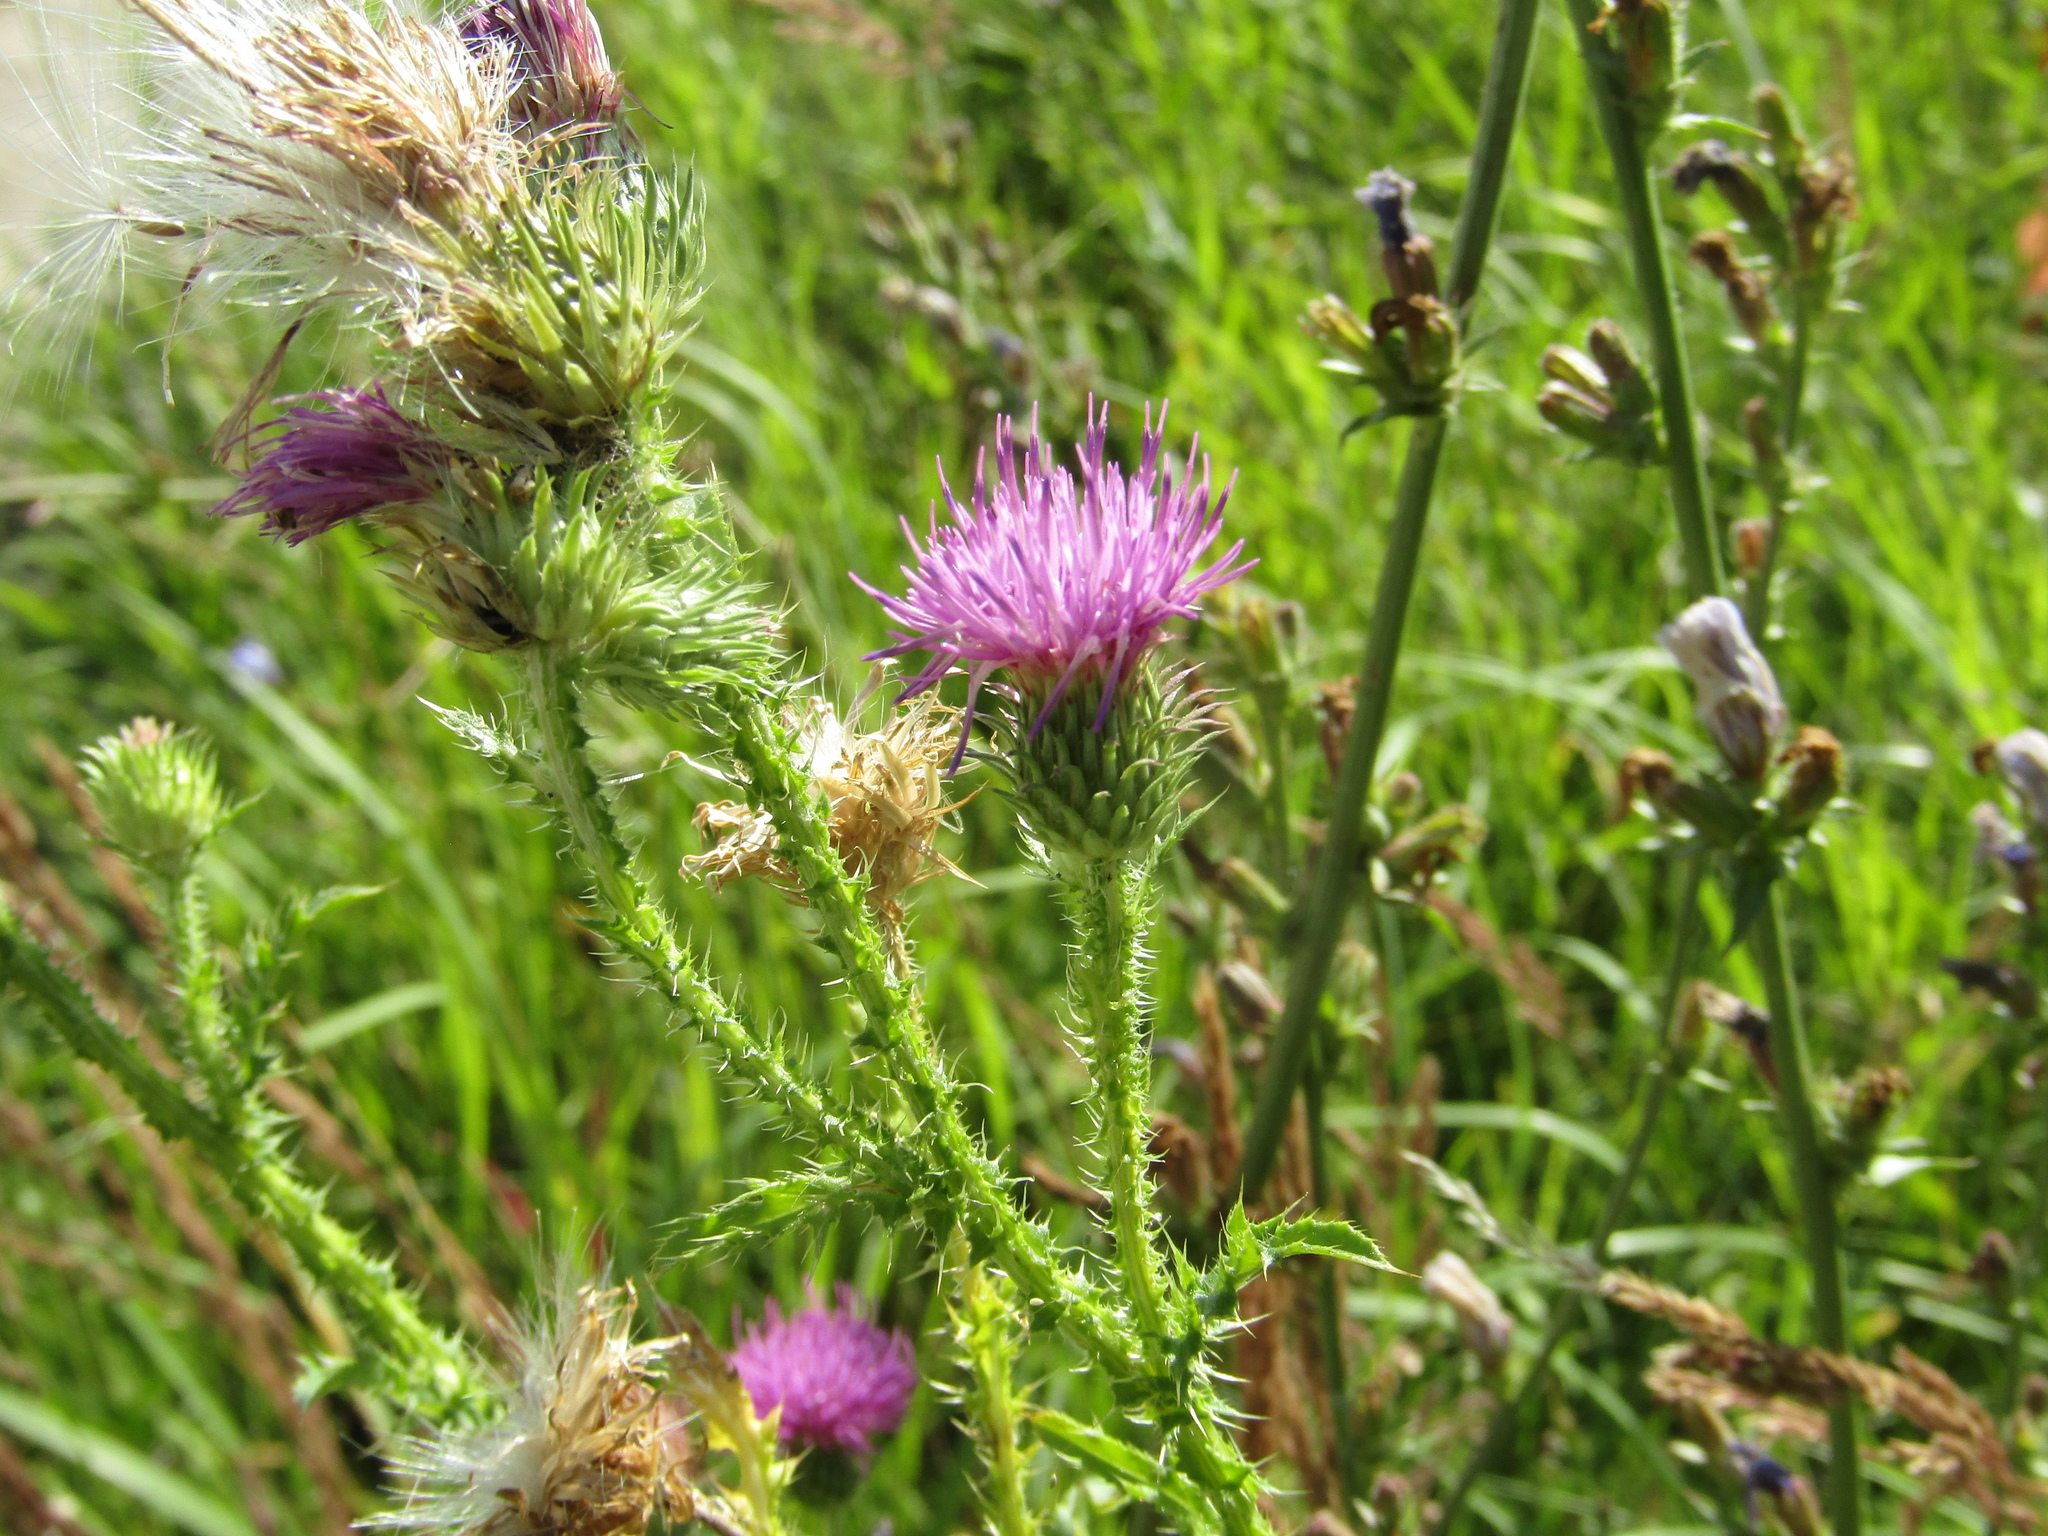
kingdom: Plantae
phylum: Tracheophyta
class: Magnoliopsida
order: Asterales
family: Asteraceae
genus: Carduus
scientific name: Carduus acanthoides
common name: Plumeless thistle
